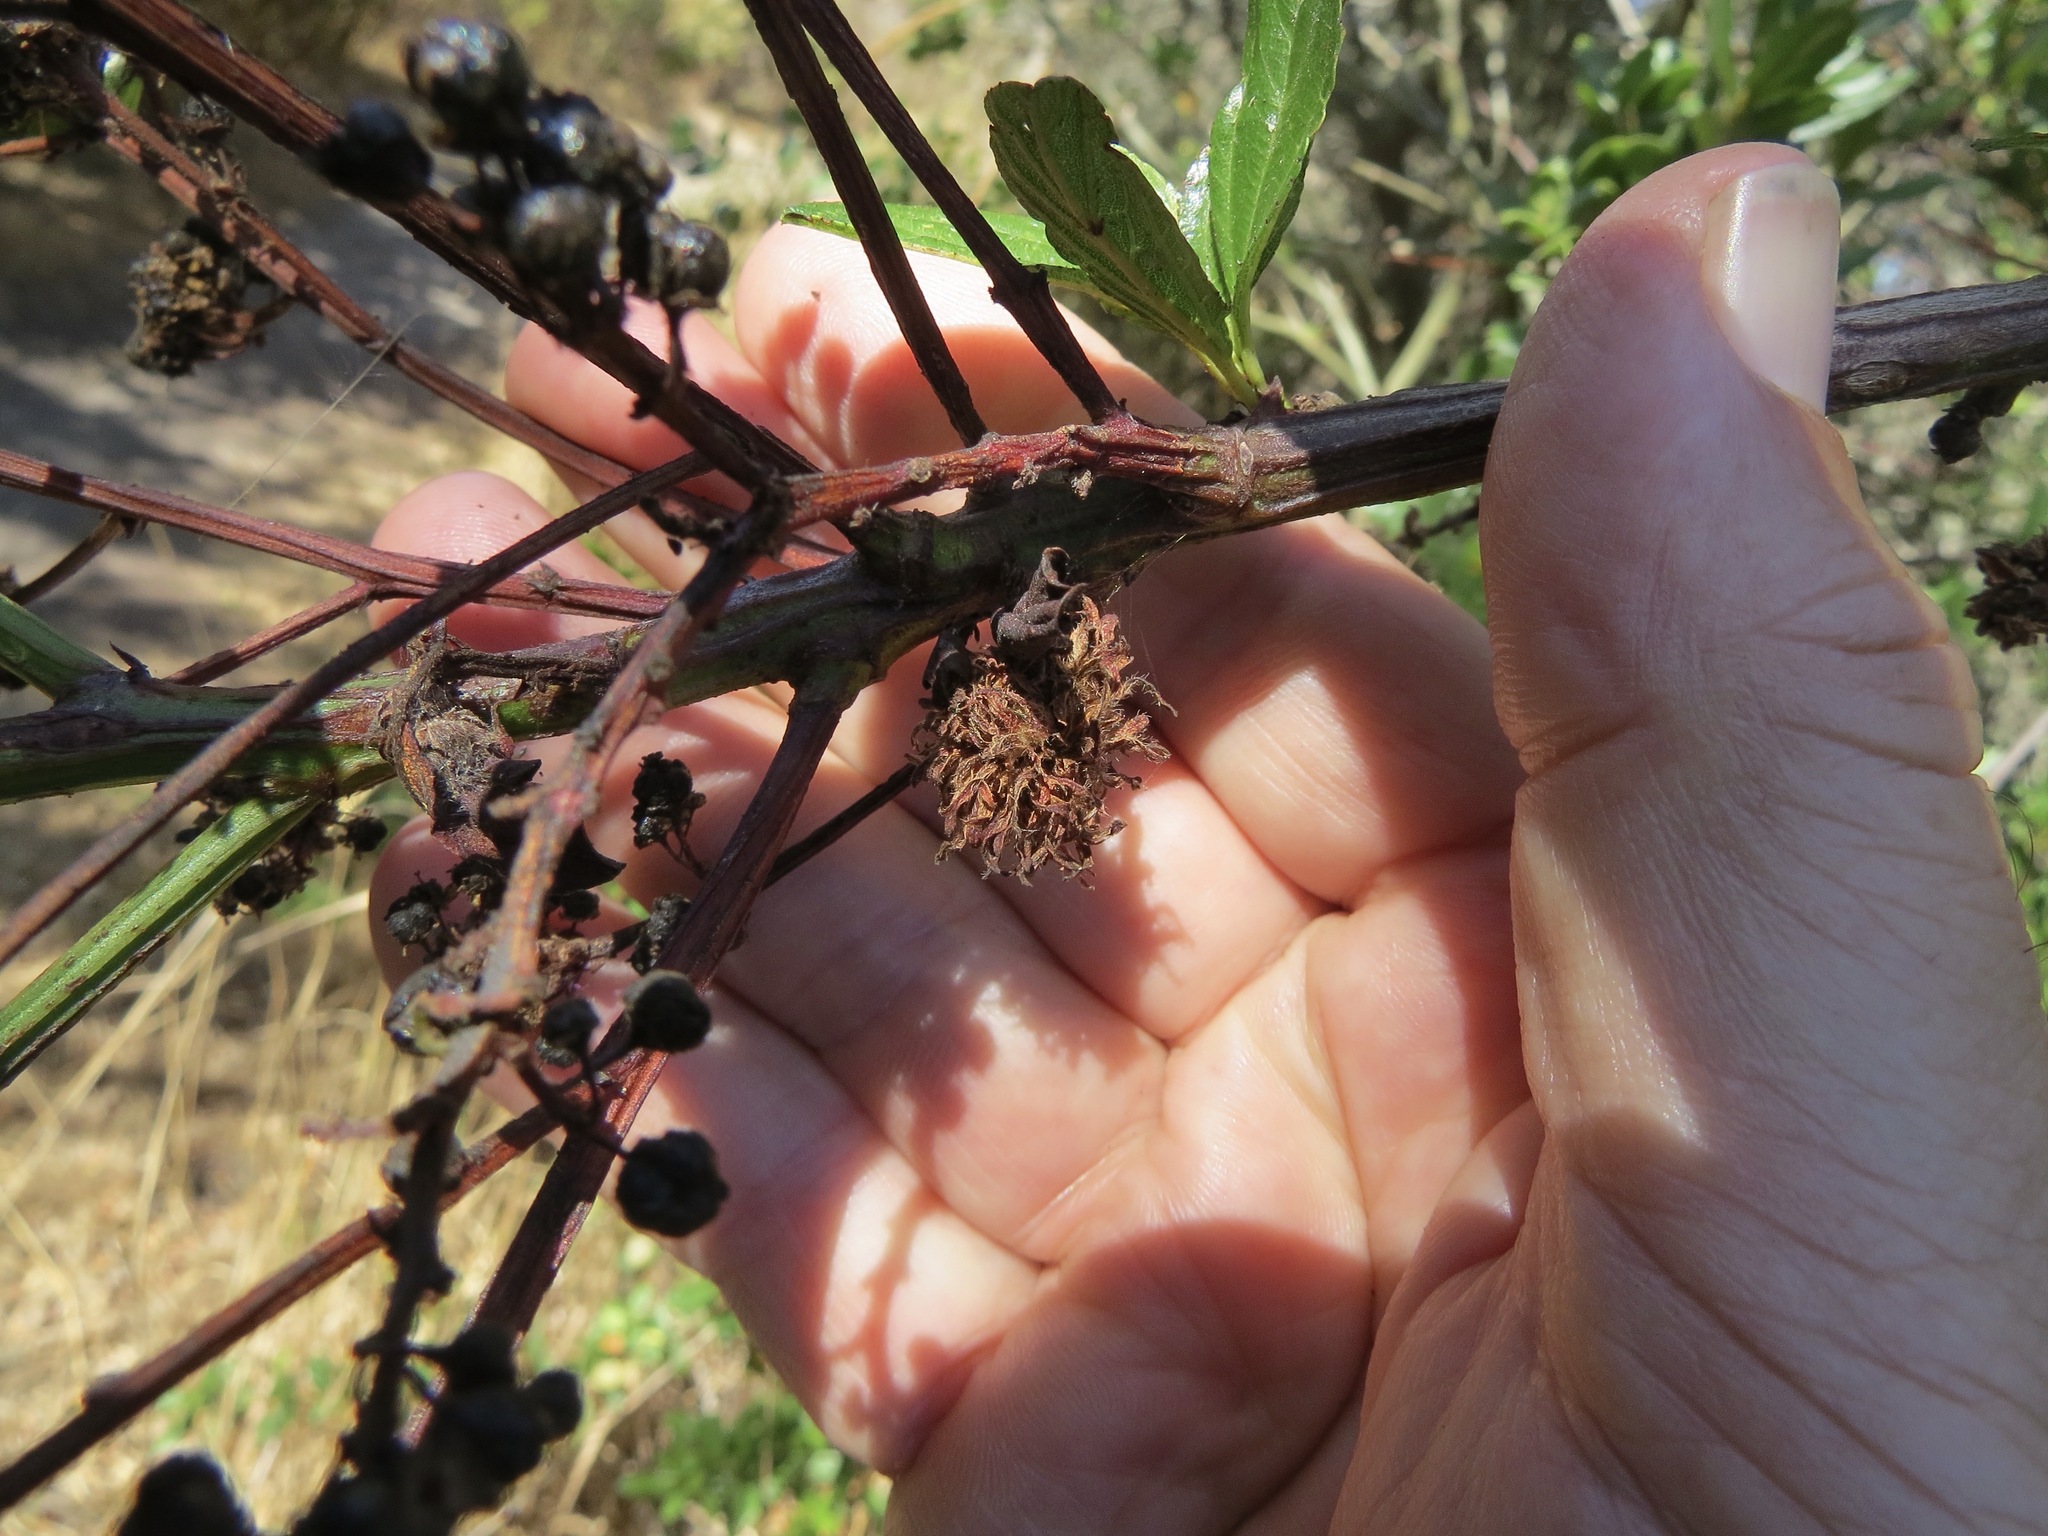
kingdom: Animalia
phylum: Arthropoda
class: Insecta
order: Diptera
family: Cecidomyiidae
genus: Asphondylia
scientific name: Asphondylia ceanothi
